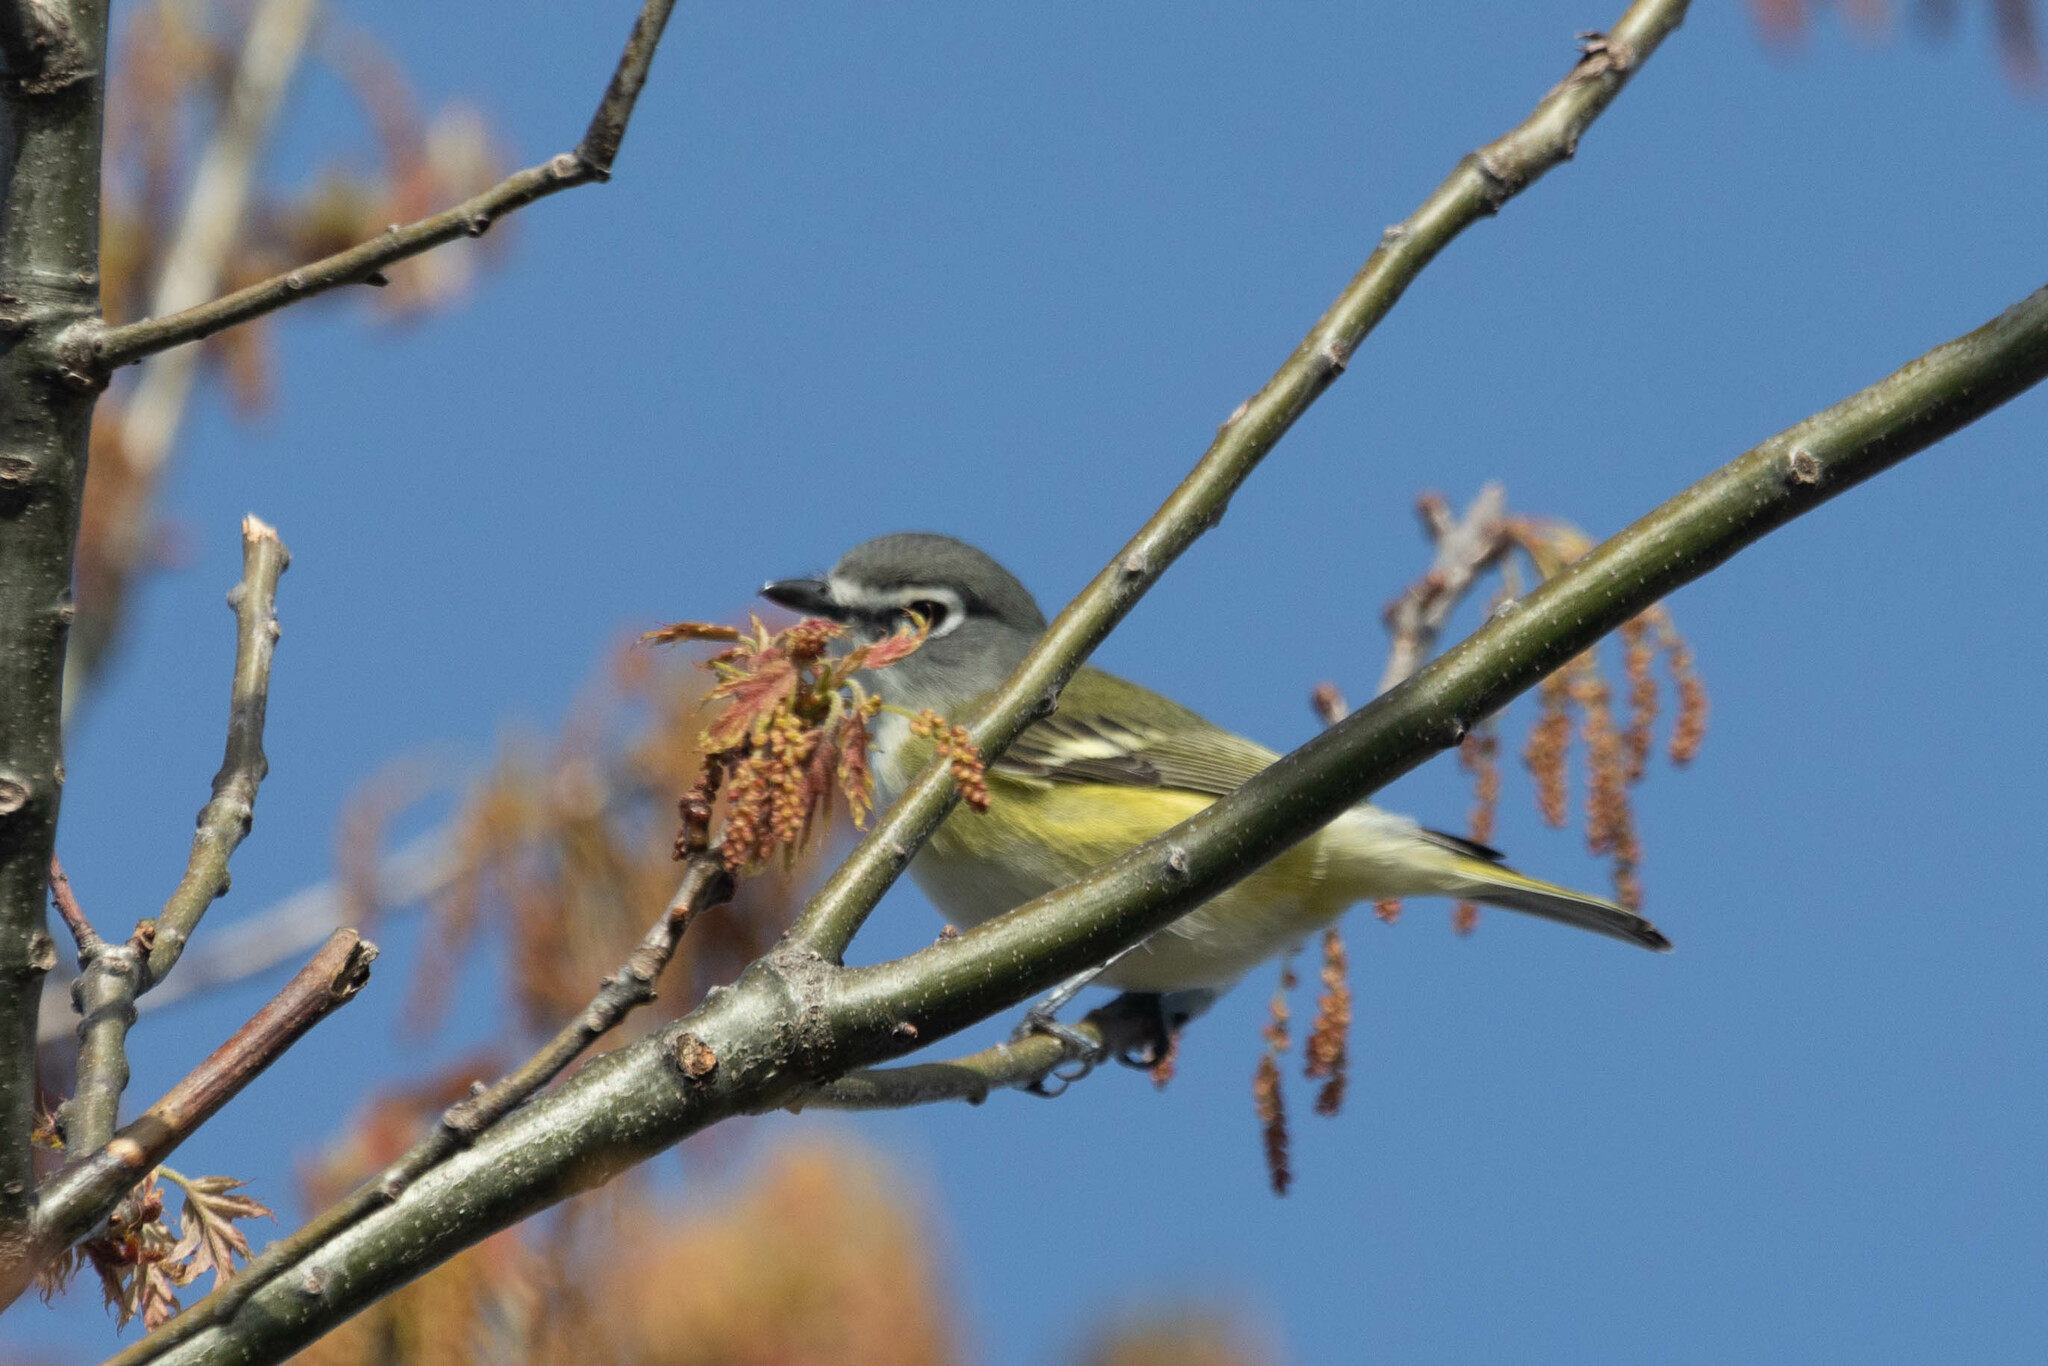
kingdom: Animalia
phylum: Chordata
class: Aves
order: Passeriformes
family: Vireonidae
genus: Vireo
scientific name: Vireo solitarius
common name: Blue-headed vireo
